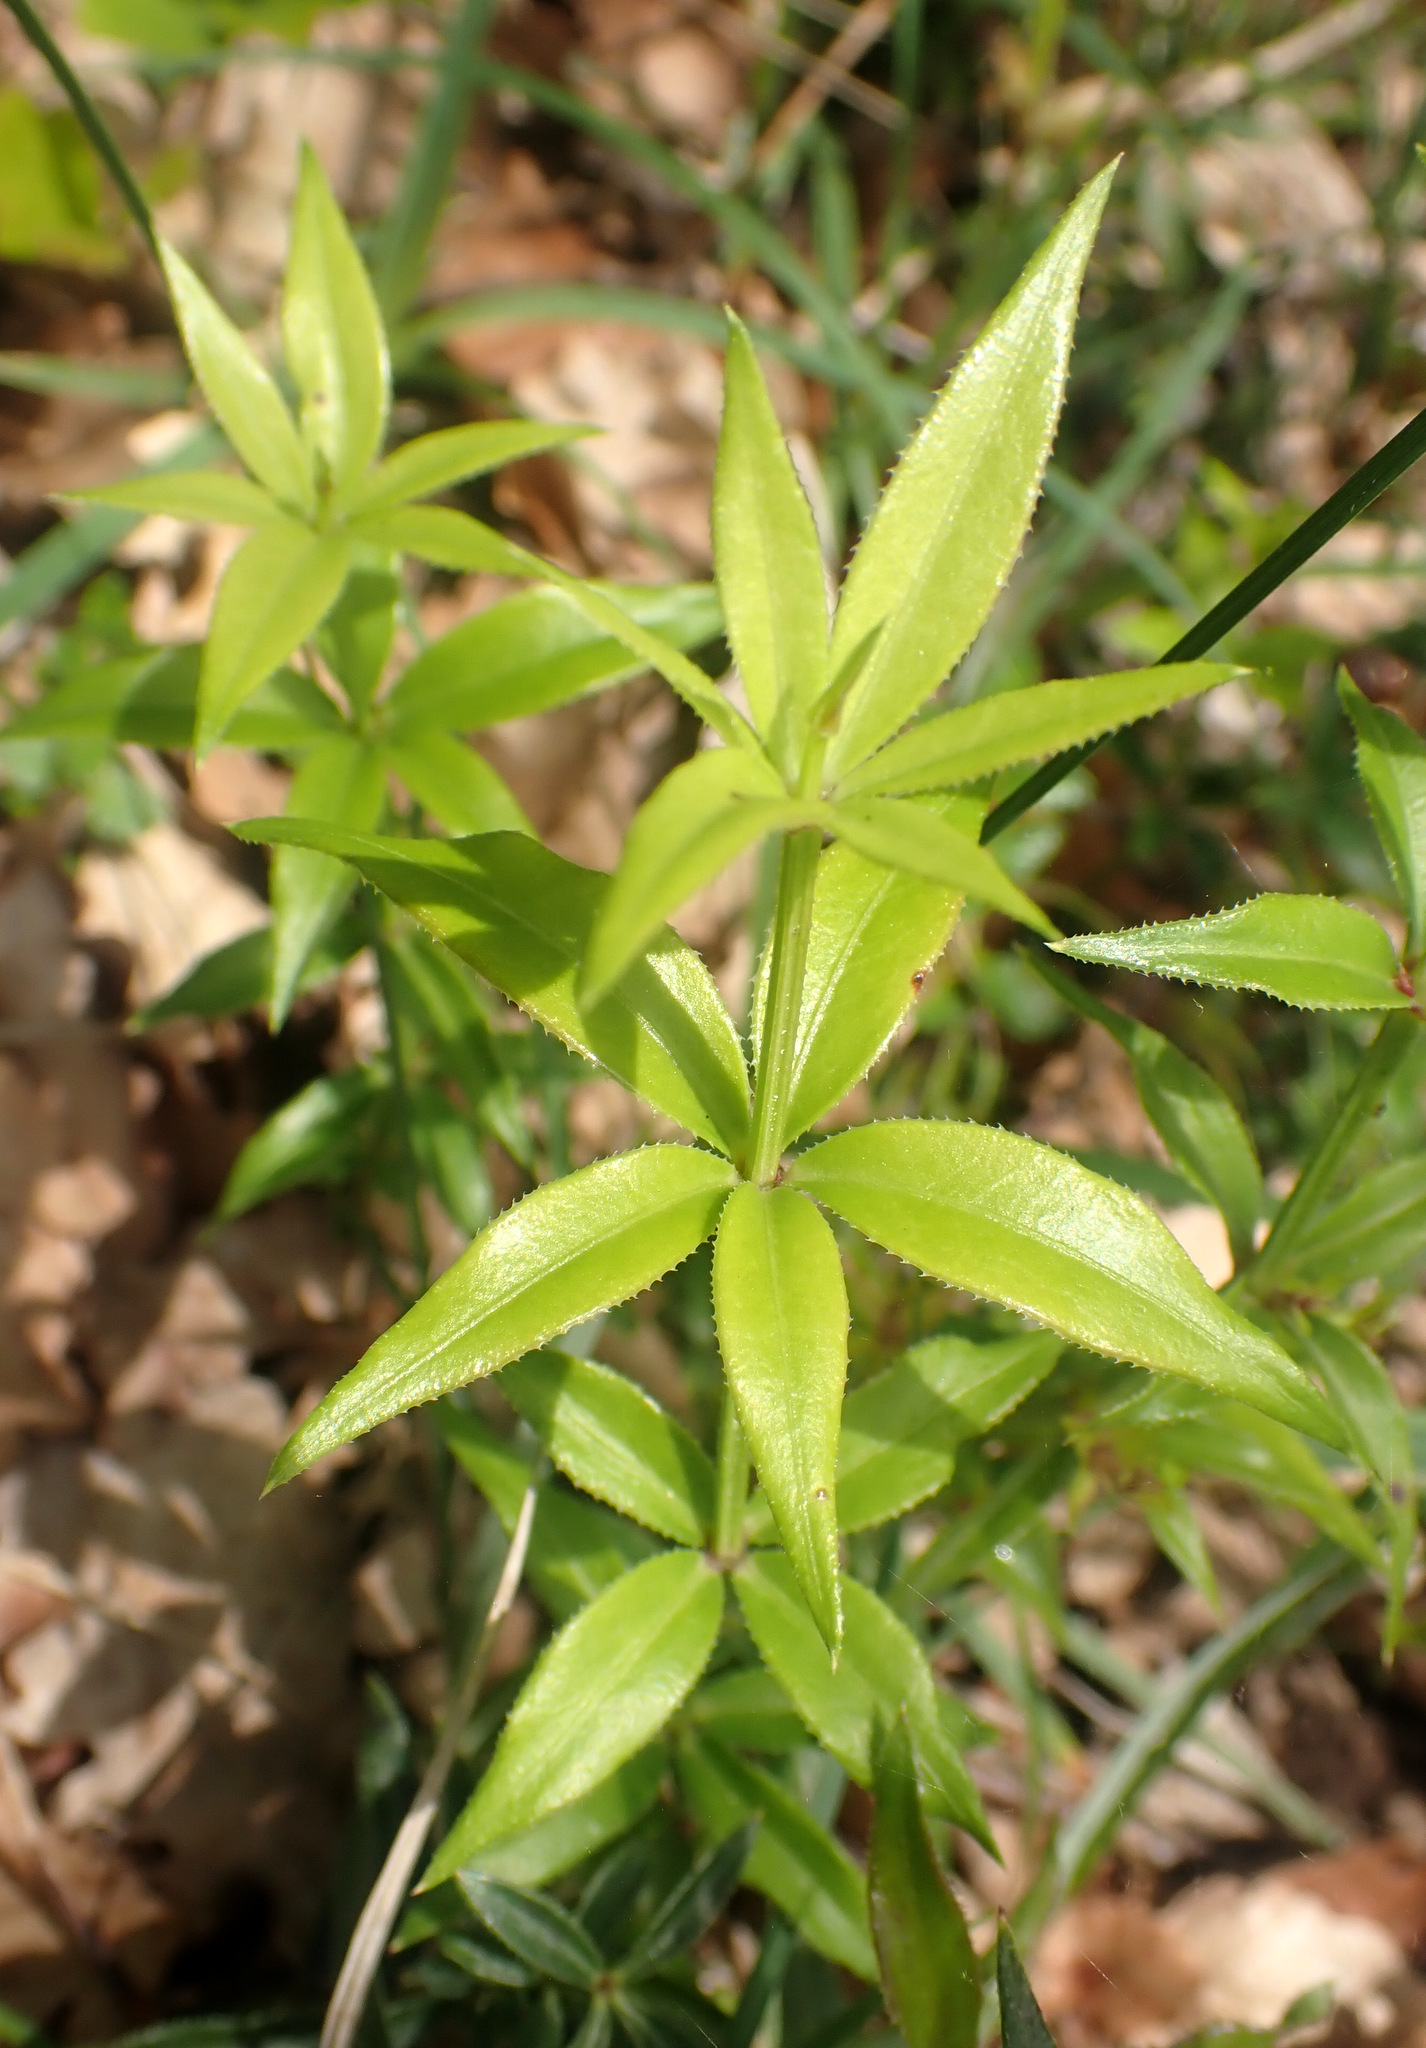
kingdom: Plantae
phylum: Tracheophyta
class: Magnoliopsida
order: Gentianales
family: Rubiaceae
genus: Rubia
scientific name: Rubia peregrina
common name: Wild madder
